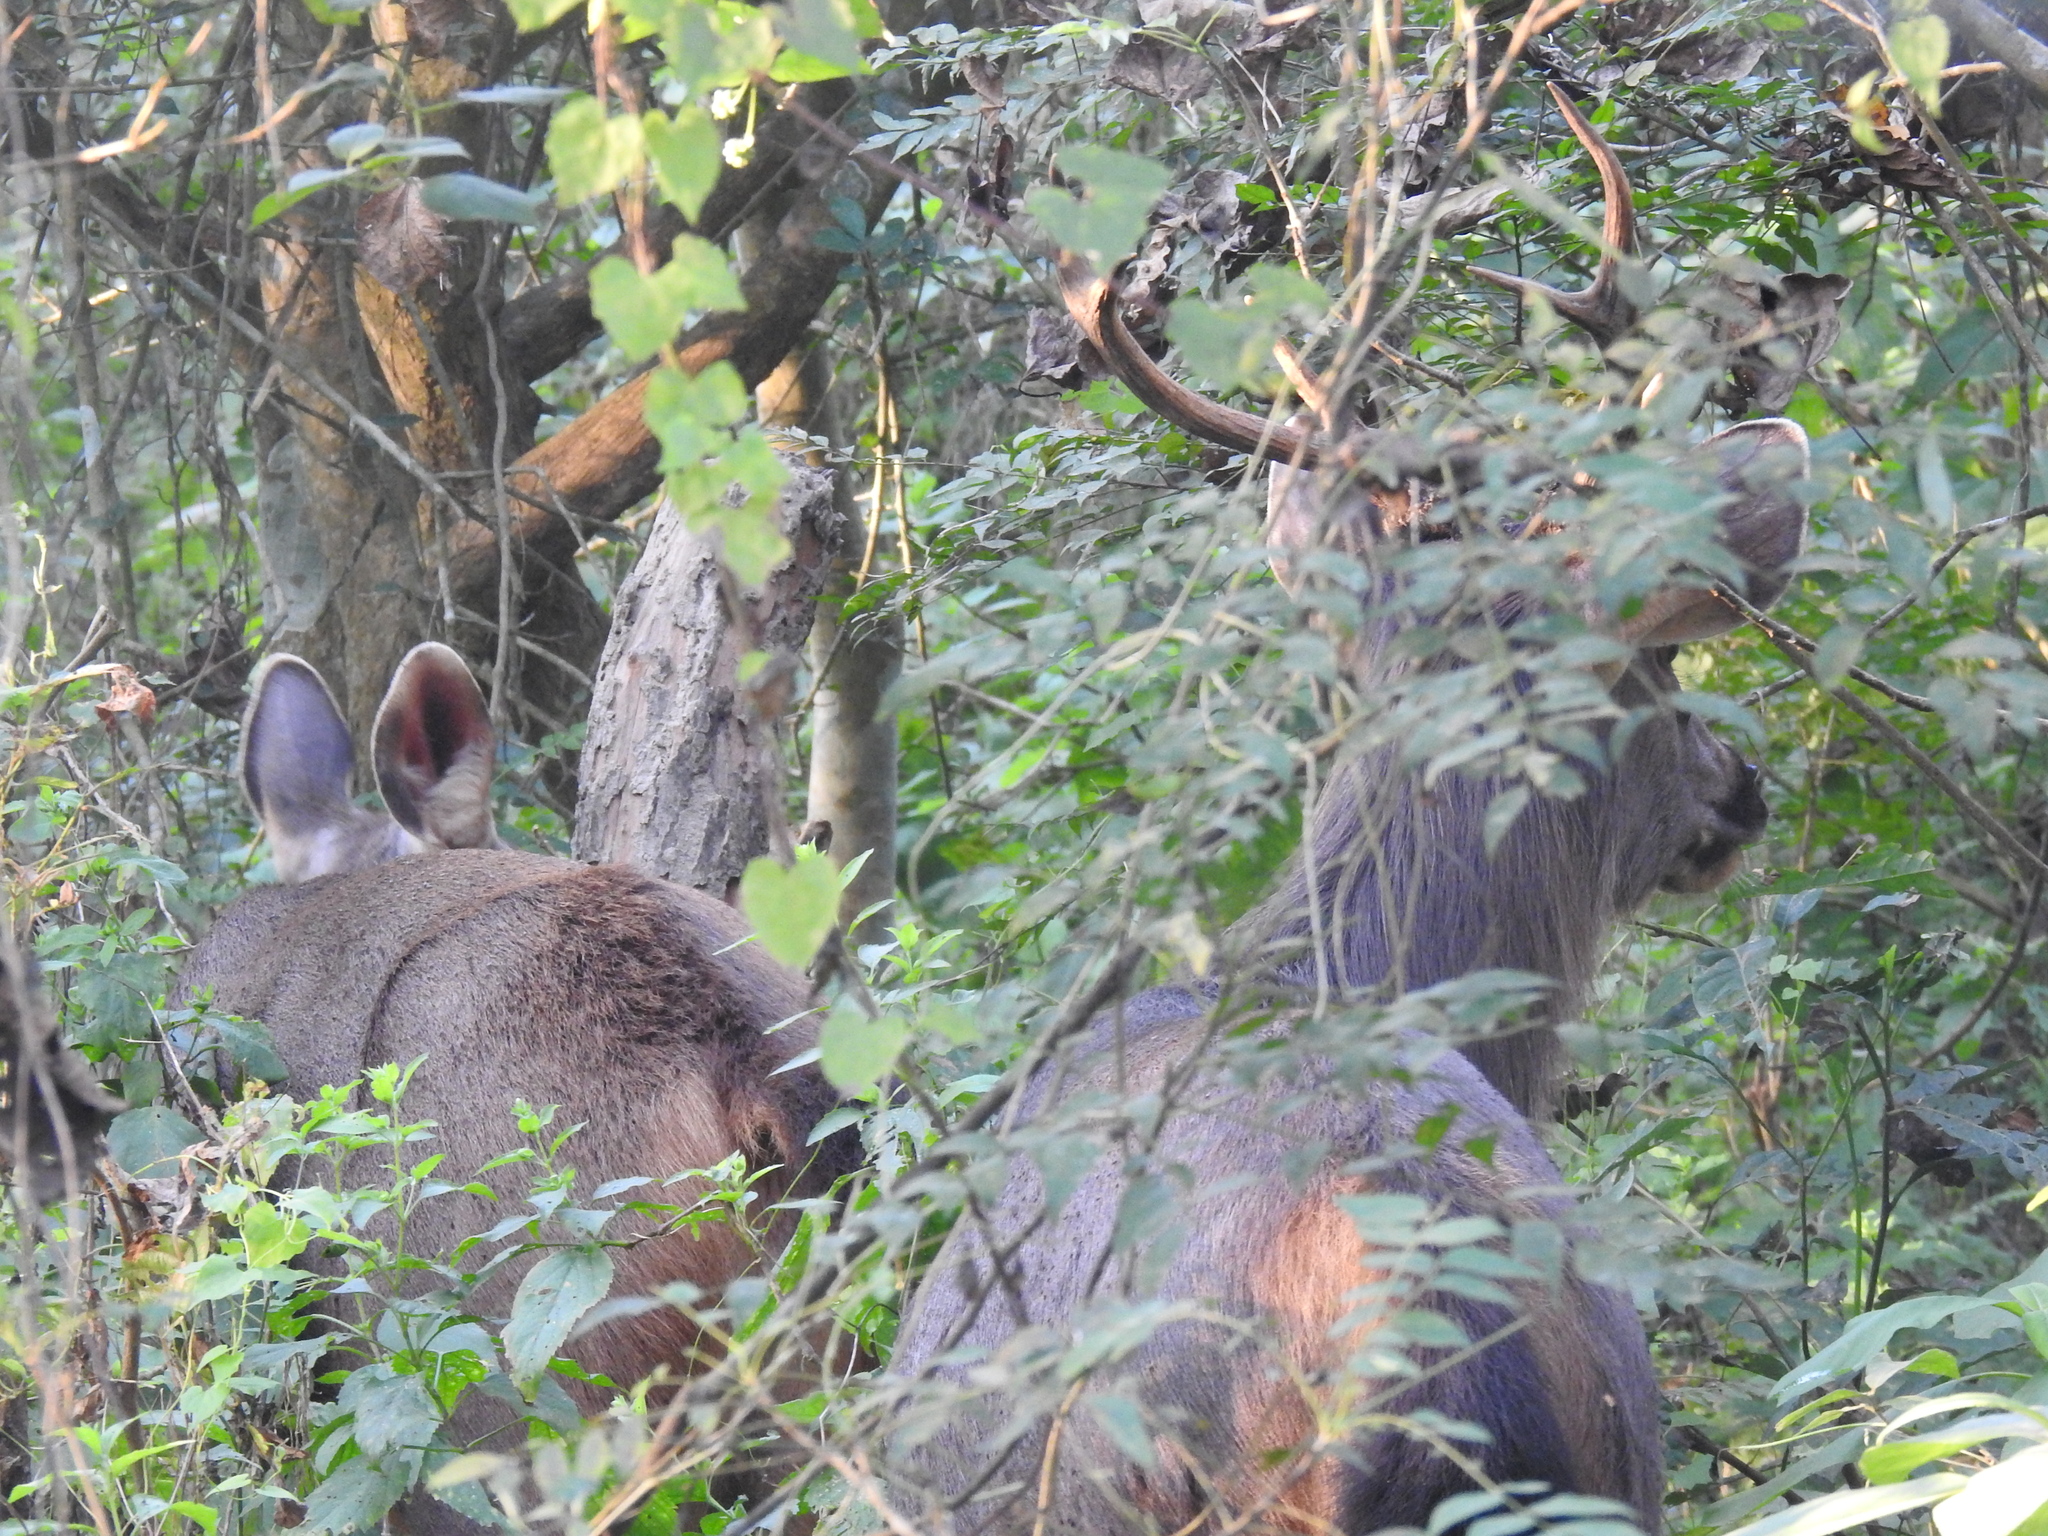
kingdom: Animalia
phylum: Chordata
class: Mammalia
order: Artiodactyla
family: Cervidae
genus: Axis
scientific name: Axis axis
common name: Chital
